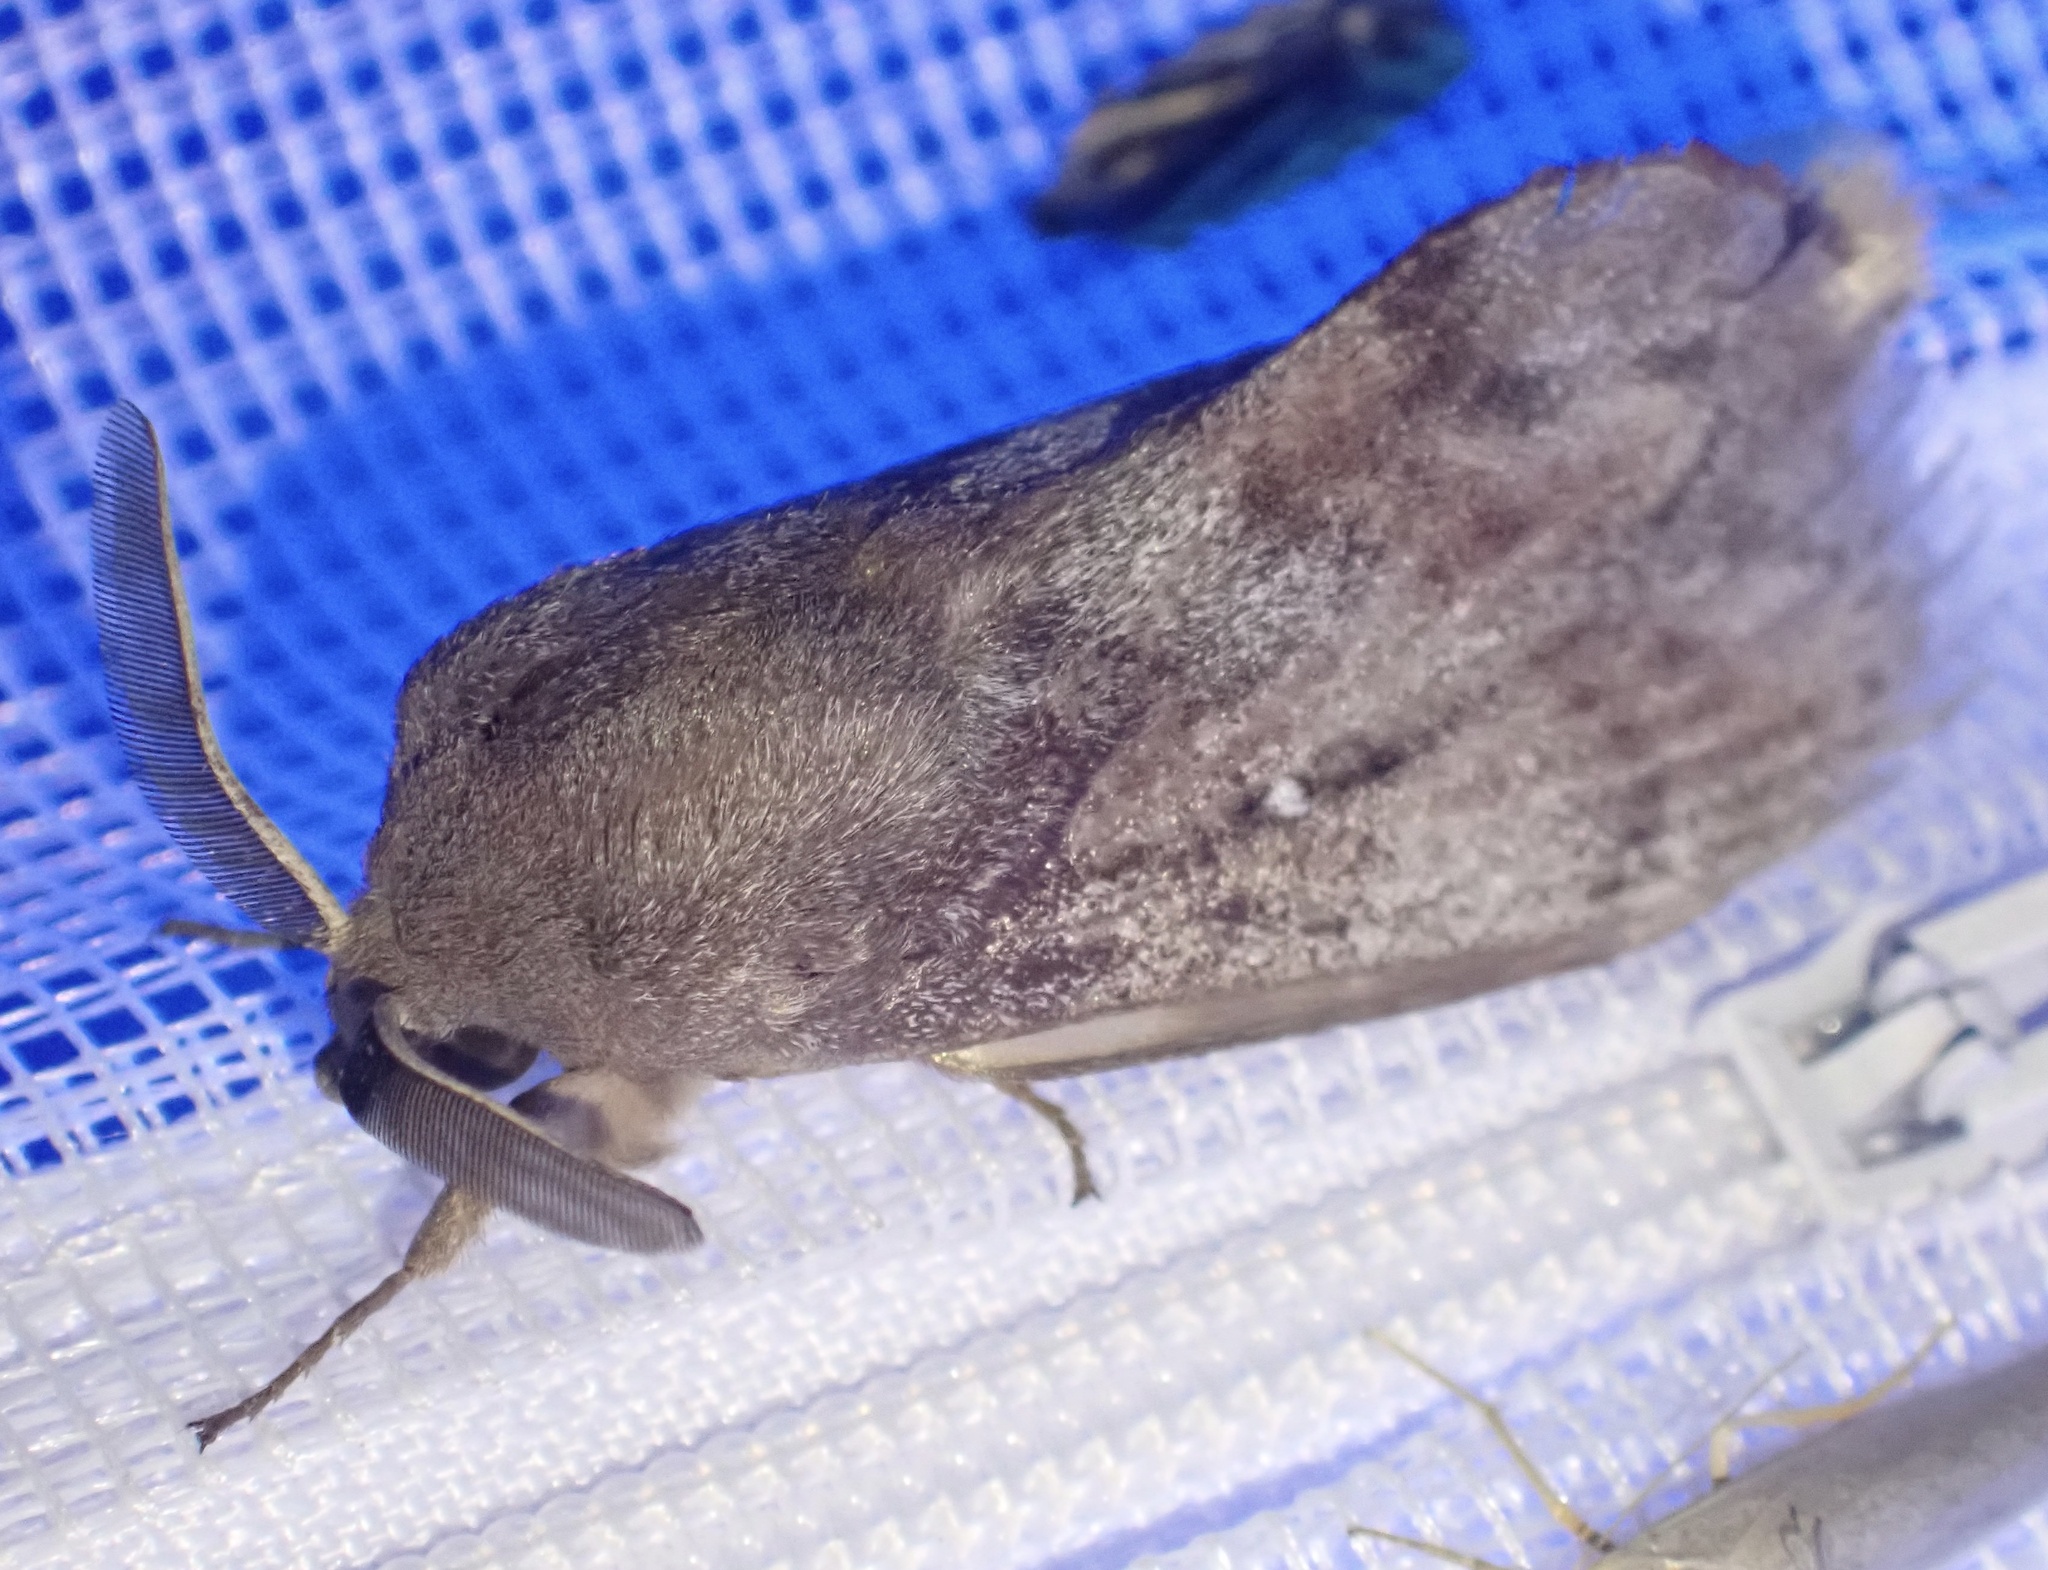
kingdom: Animalia
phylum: Arthropoda
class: Insecta
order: Lepidoptera
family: Lasiocampidae
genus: Dendrolimus
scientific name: Dendrolimus pini
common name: Pine-tree lappet
